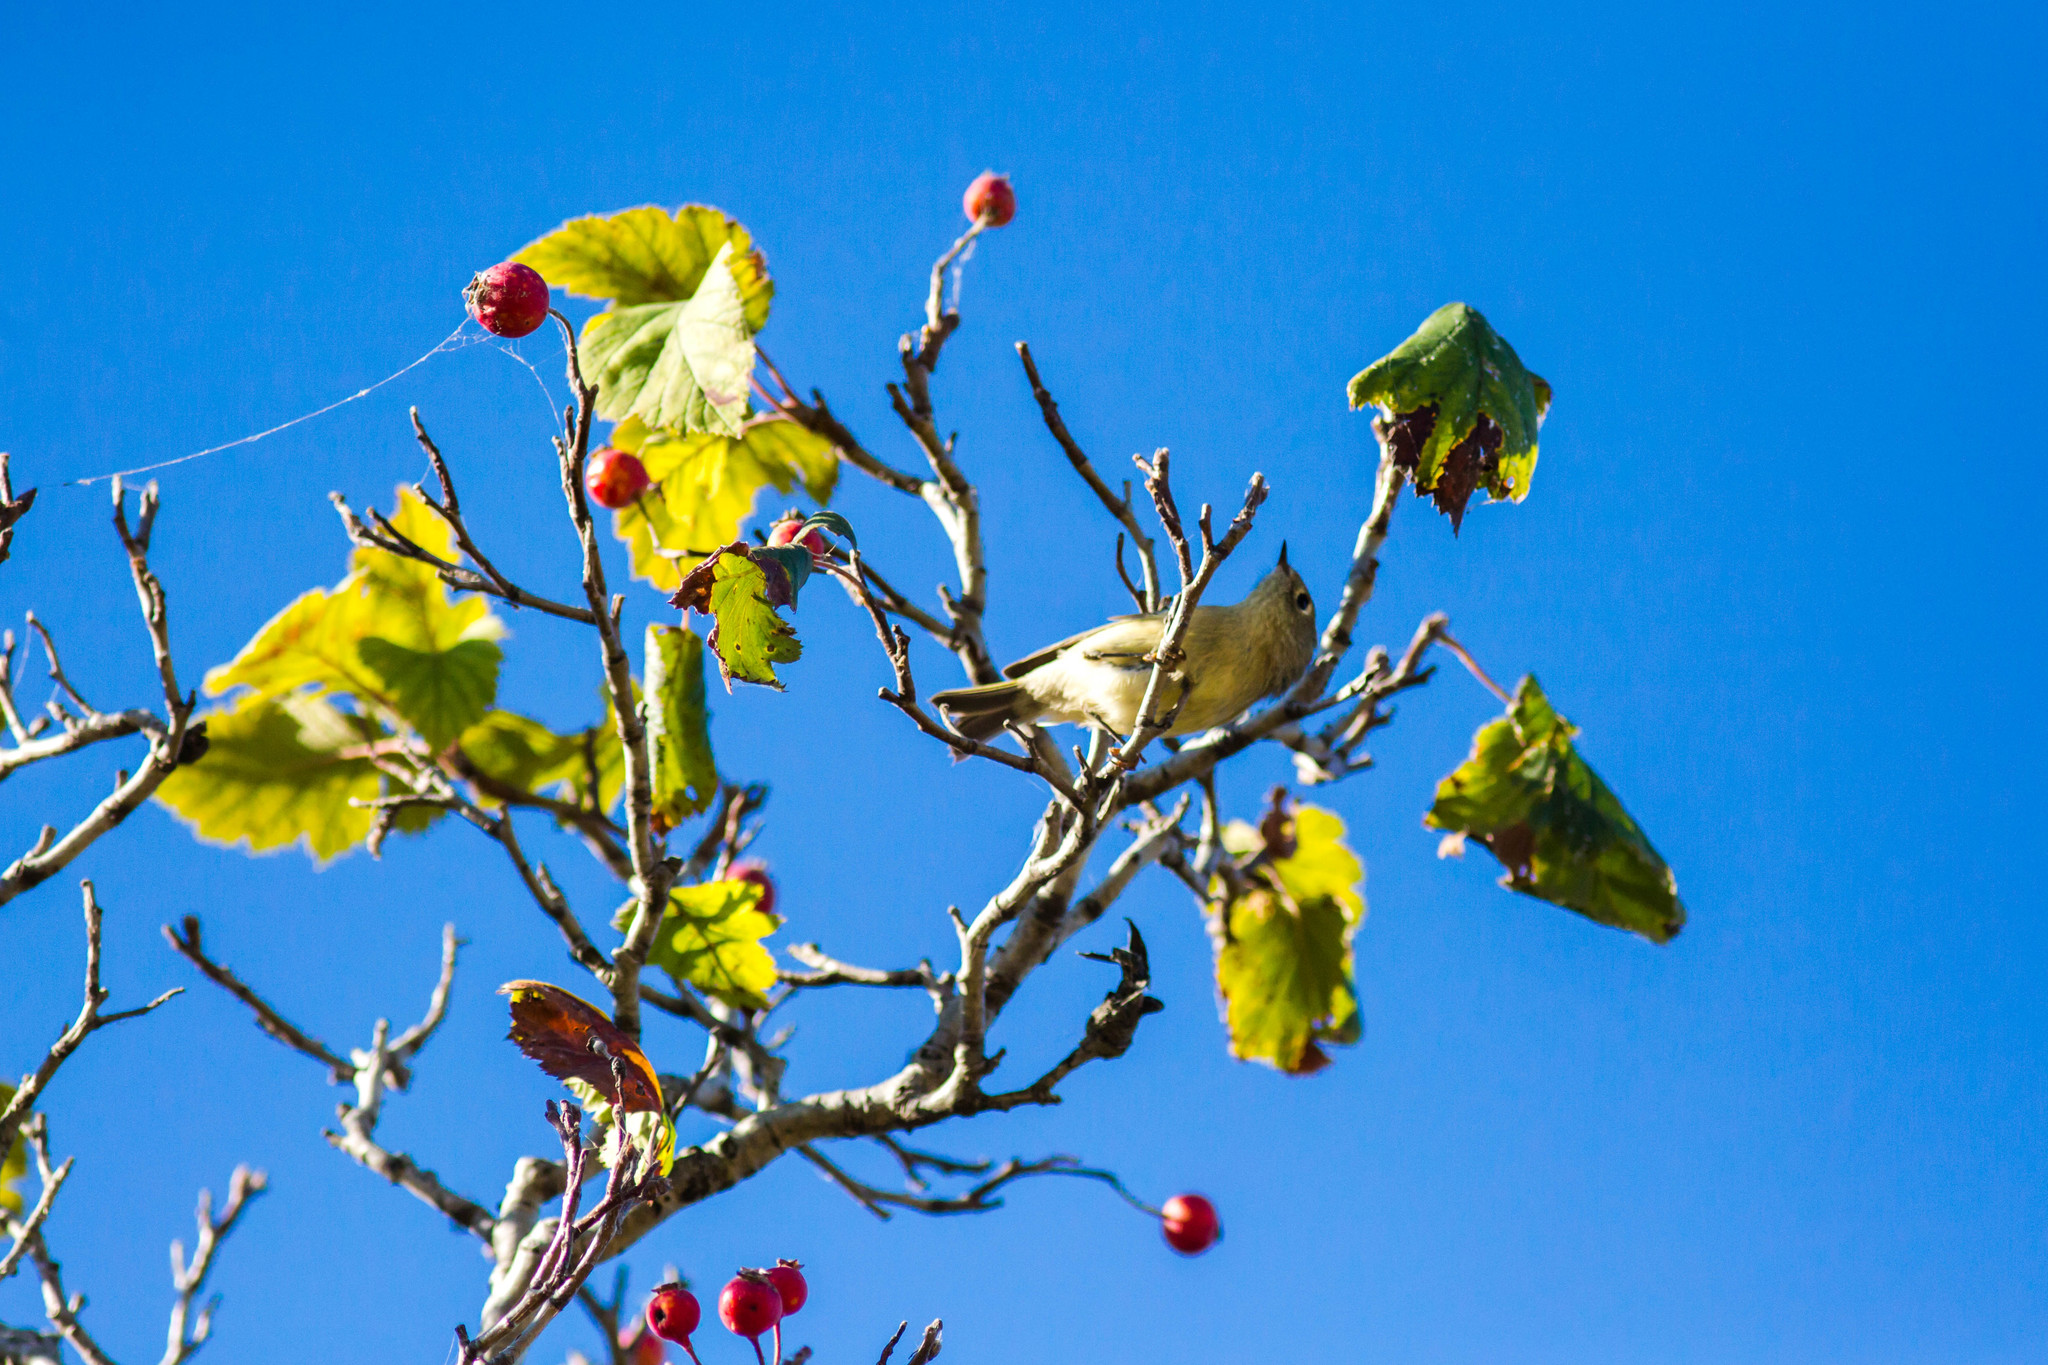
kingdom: Animalia
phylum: Chordata
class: Aves
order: Passeriformes
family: Regulidae
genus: Regulus
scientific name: Regulus calendula
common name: Ruby-crowned kinglet
